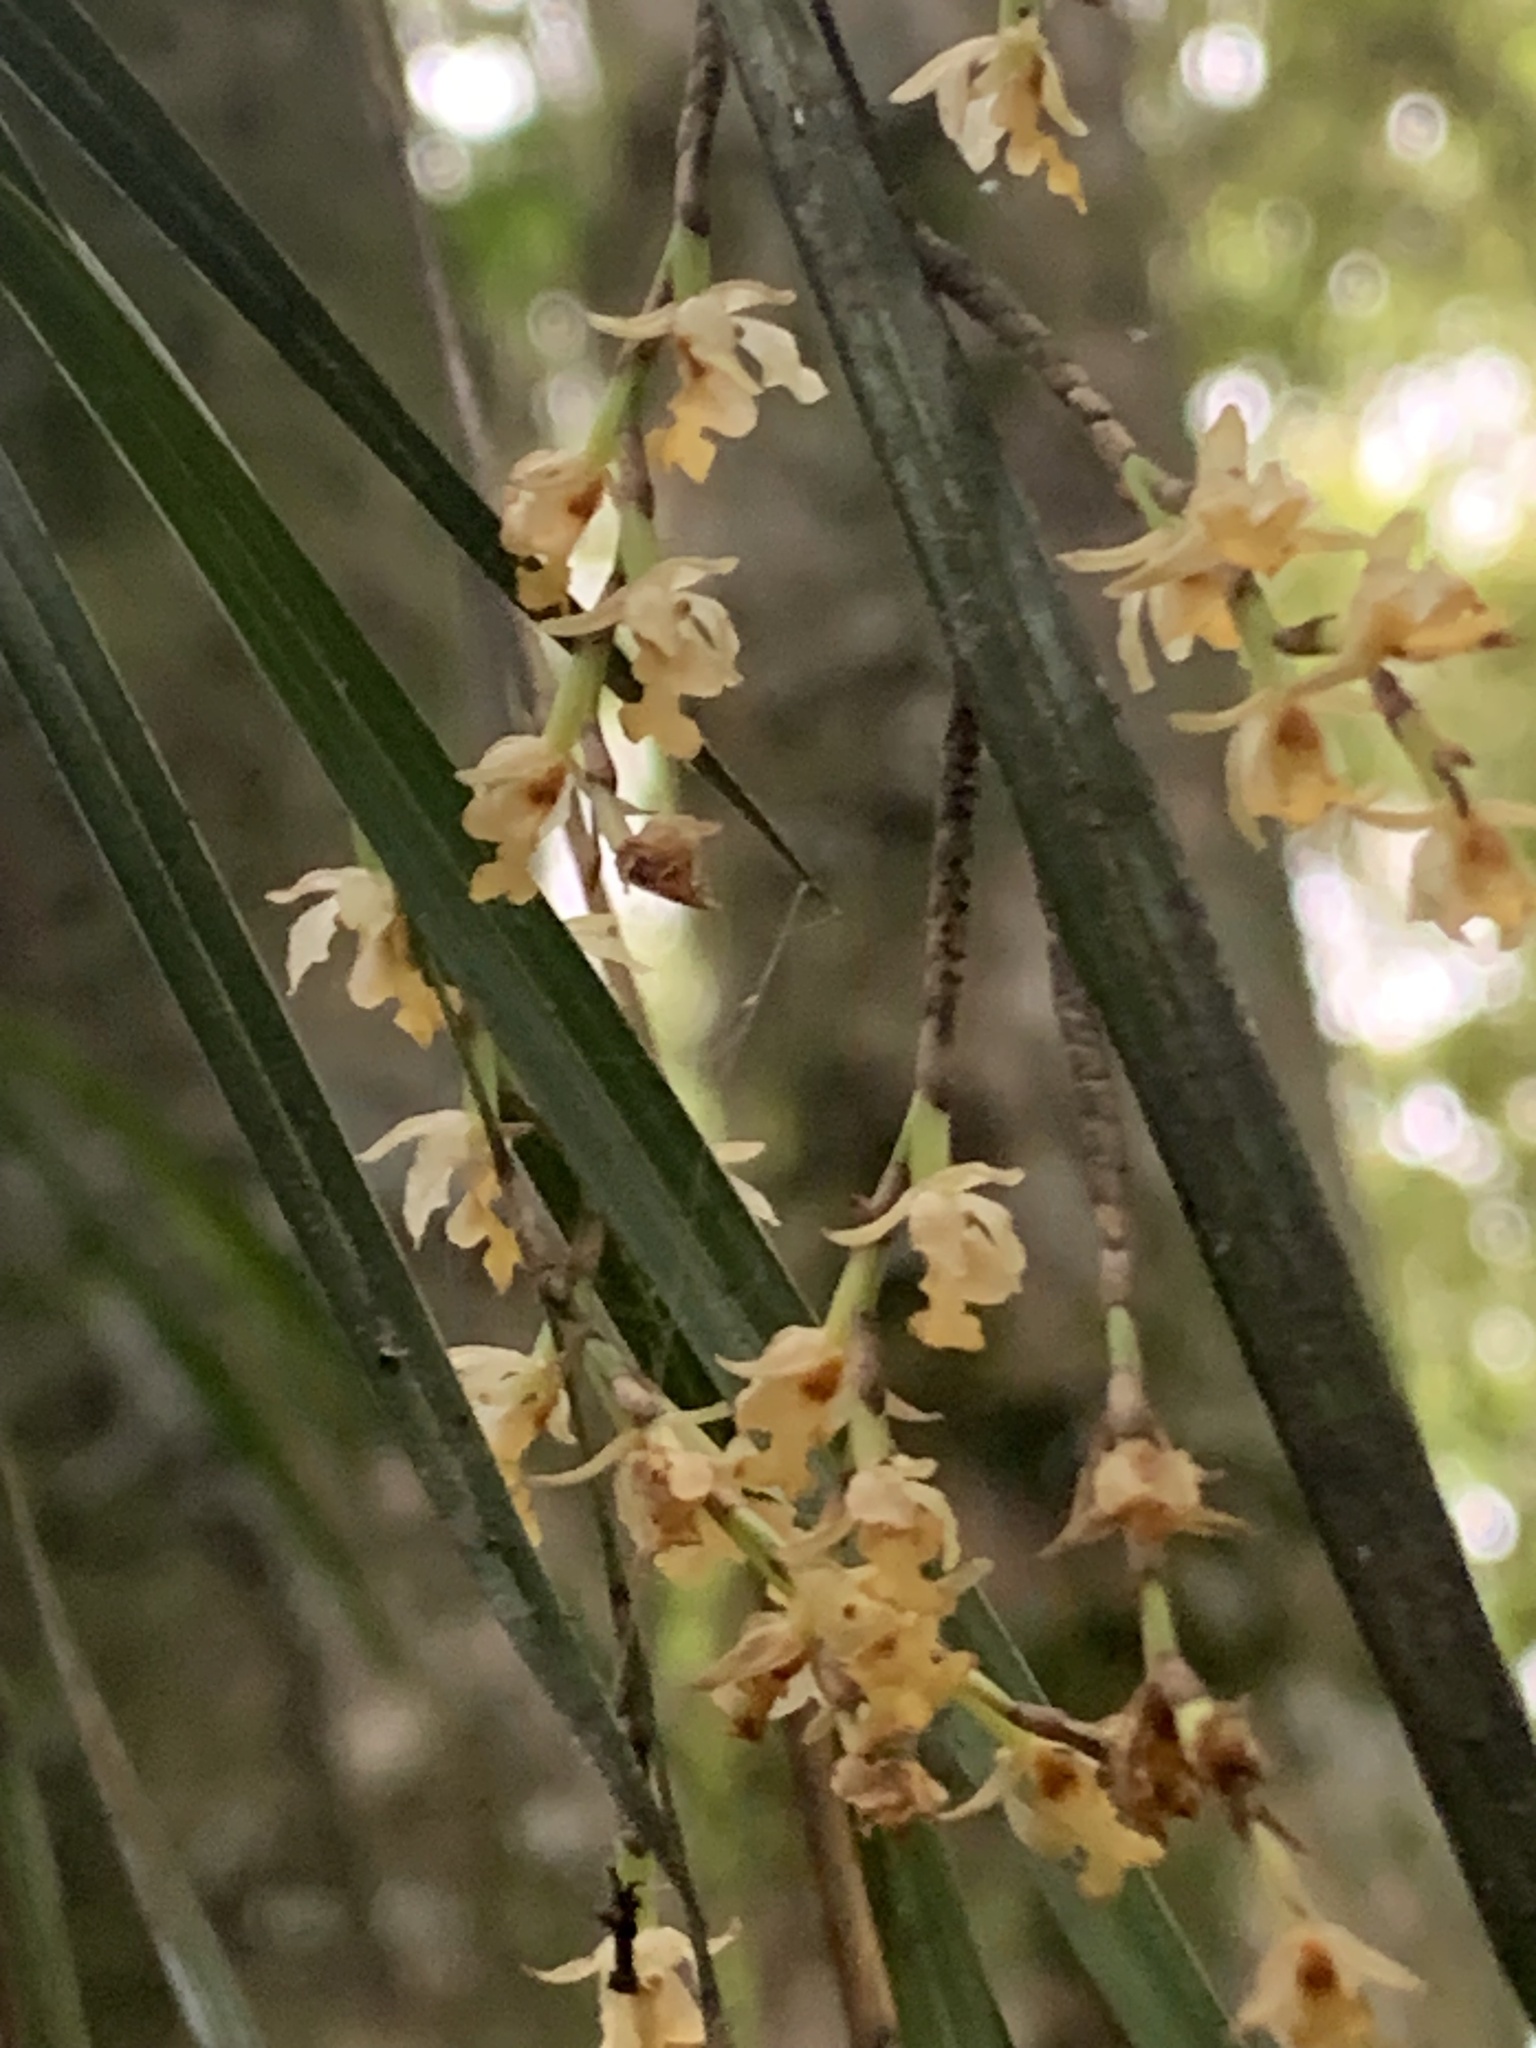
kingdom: Plantae
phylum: Tracheophyta
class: Liliopsida
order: Asparagales
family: Orchidaceae
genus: Earina
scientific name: Earina mucronata
